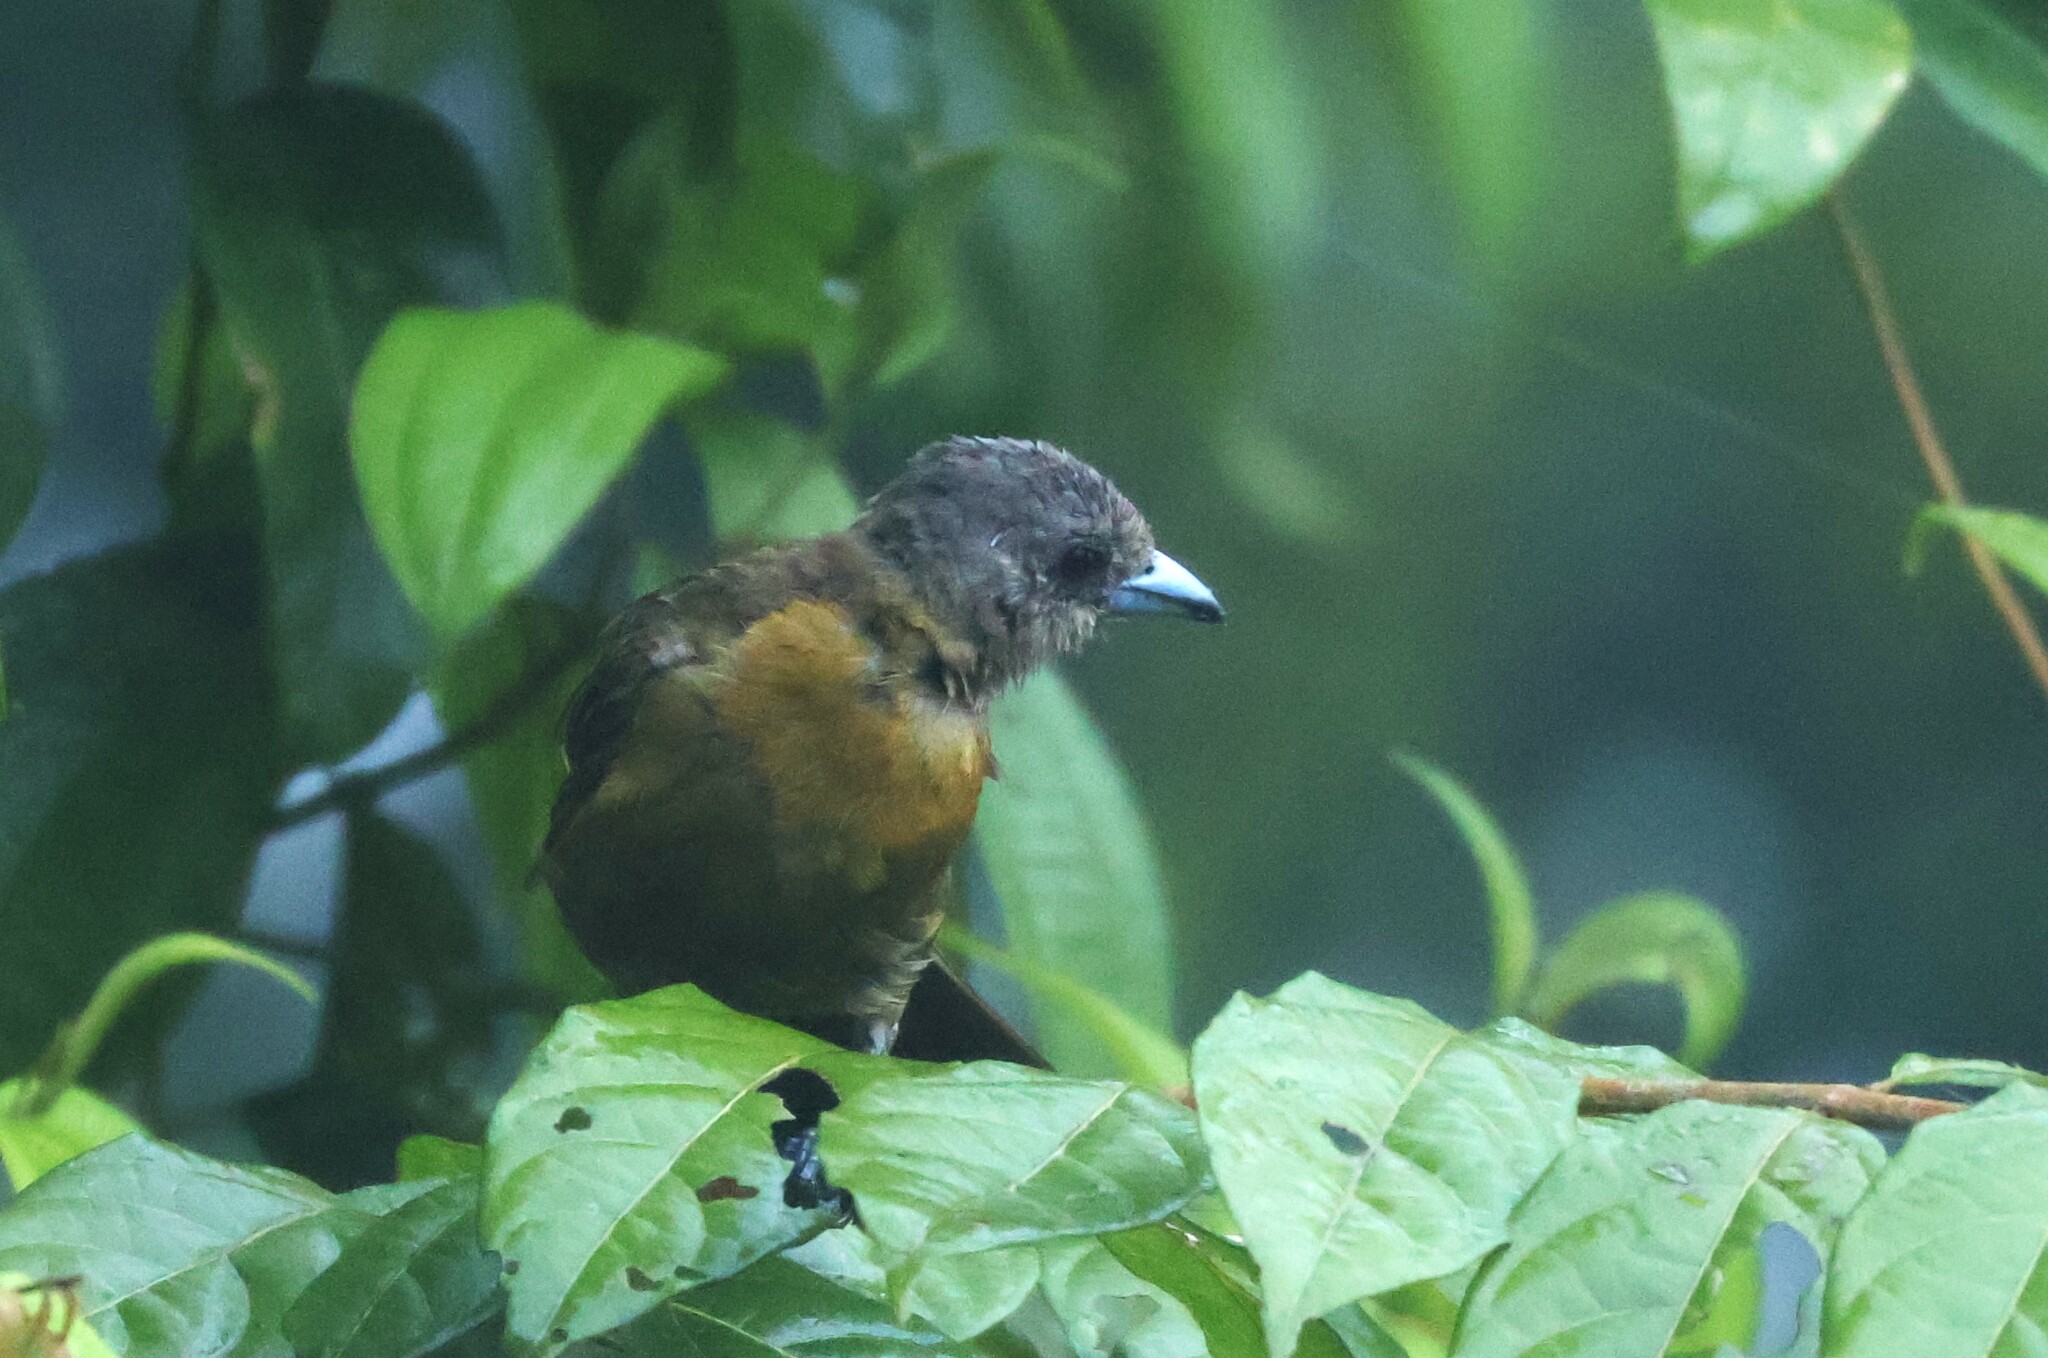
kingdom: Animalia
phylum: Chordata
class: Aves
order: Passeriformes
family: Thraupidae
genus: Ramphocelus
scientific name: Ramphocelus passerinii
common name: Passerini's tanager
